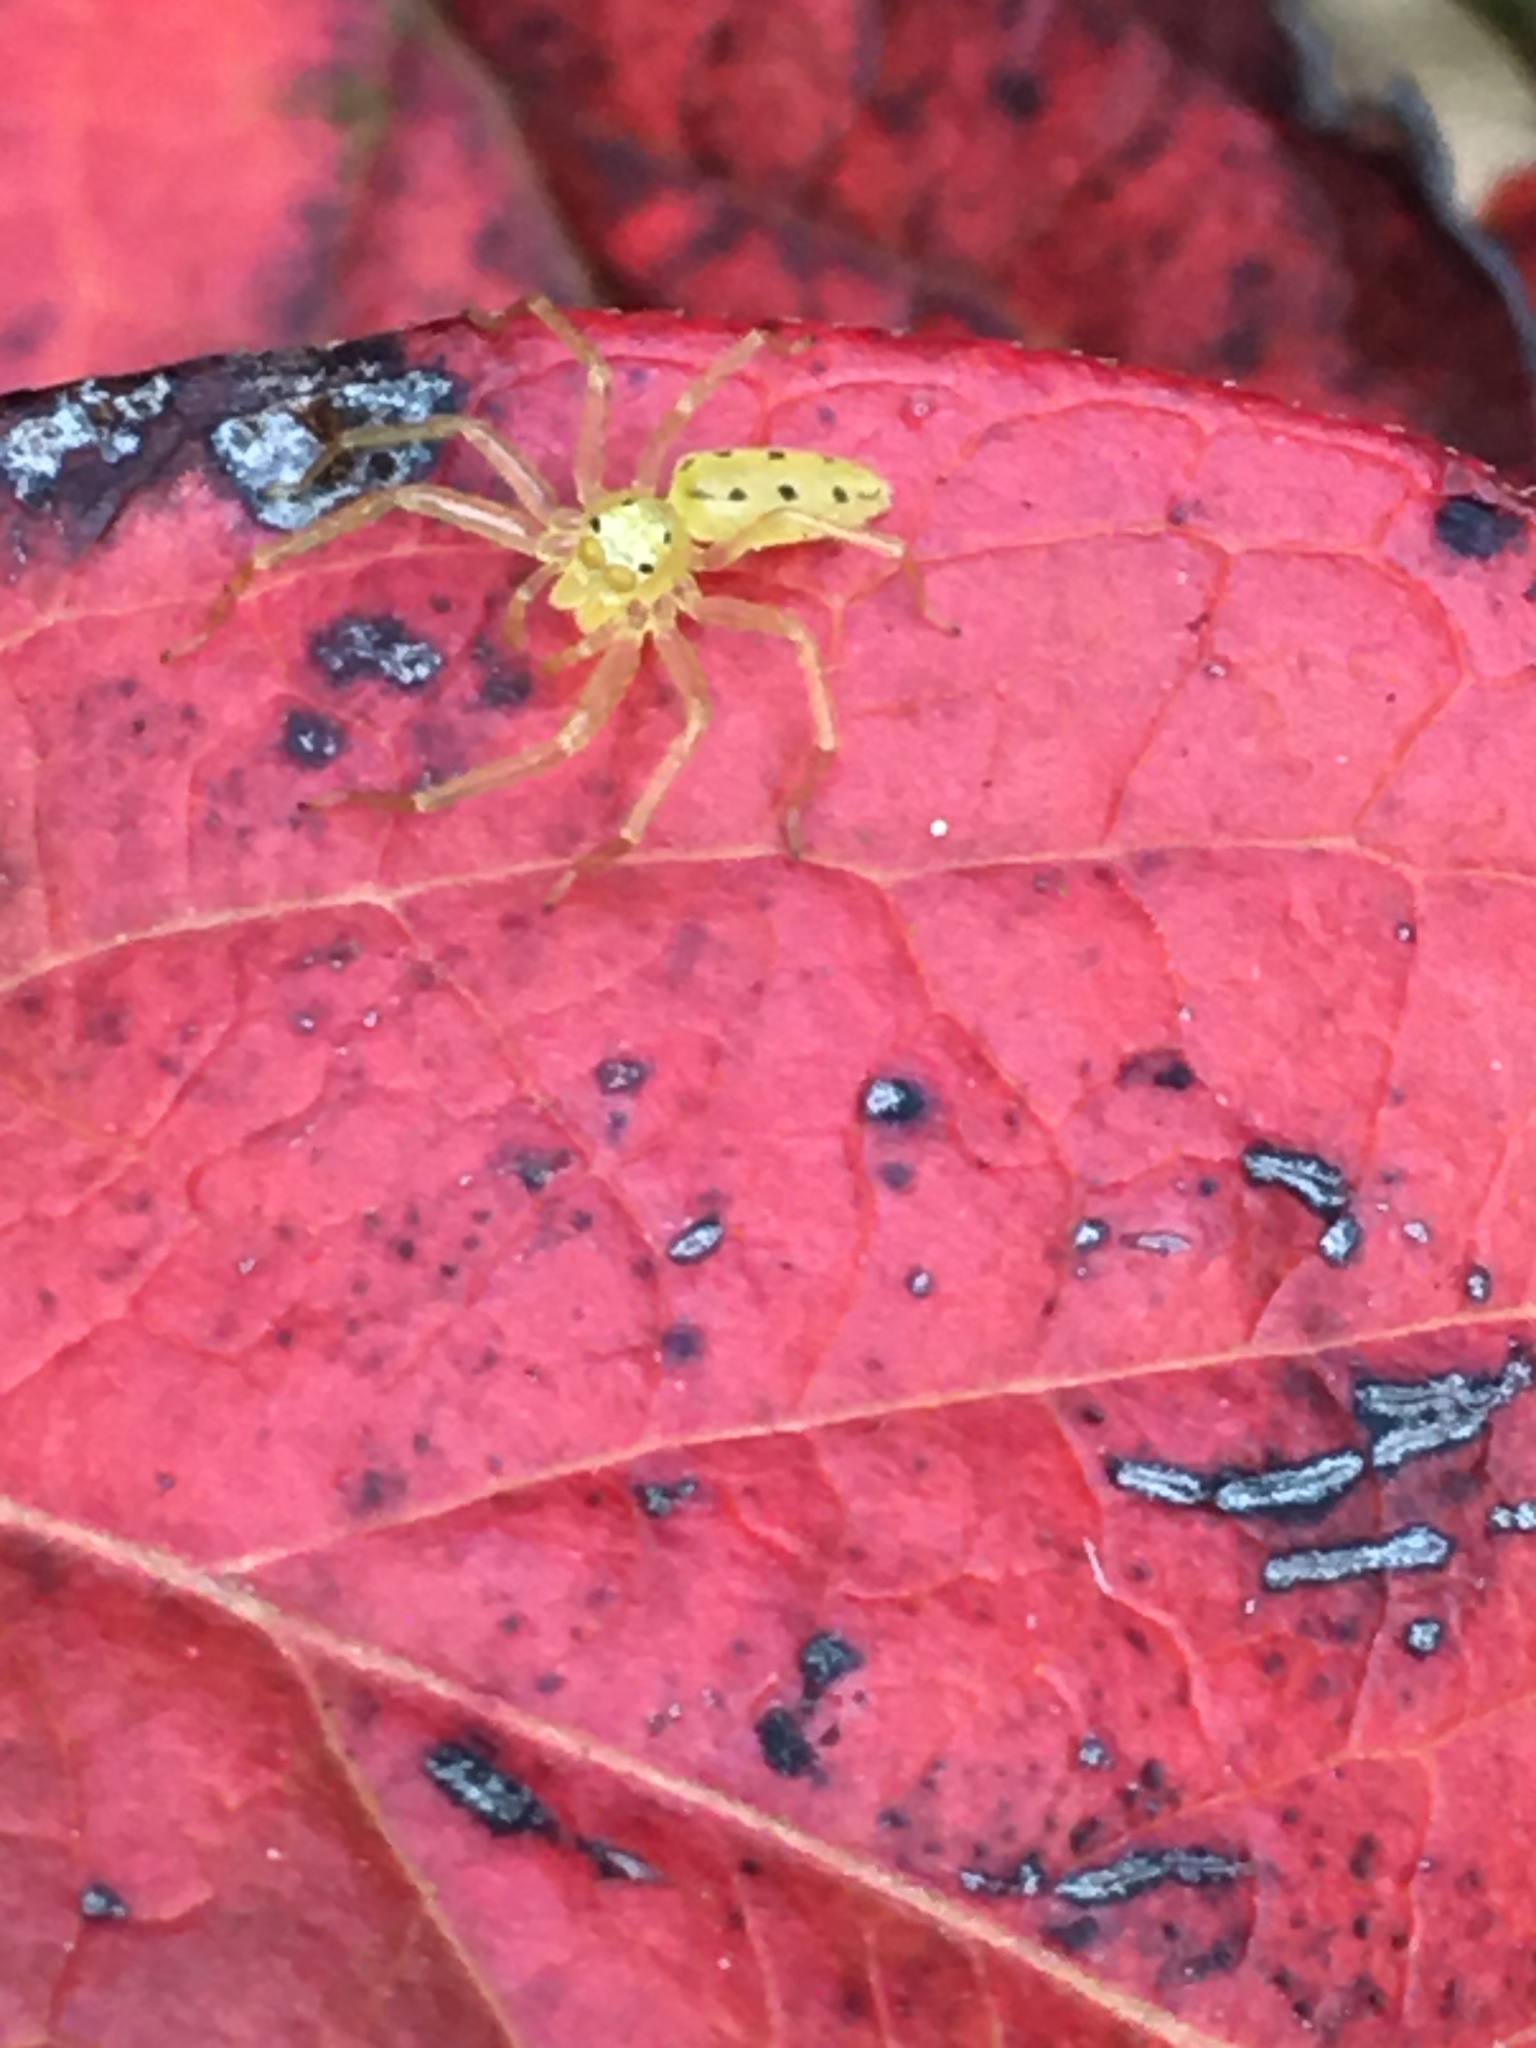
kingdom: Animalia
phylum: Arthropoda
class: Arachnida
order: Araneae
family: Salticidae
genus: Lyssomanes
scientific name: Lyssomanes viridis
